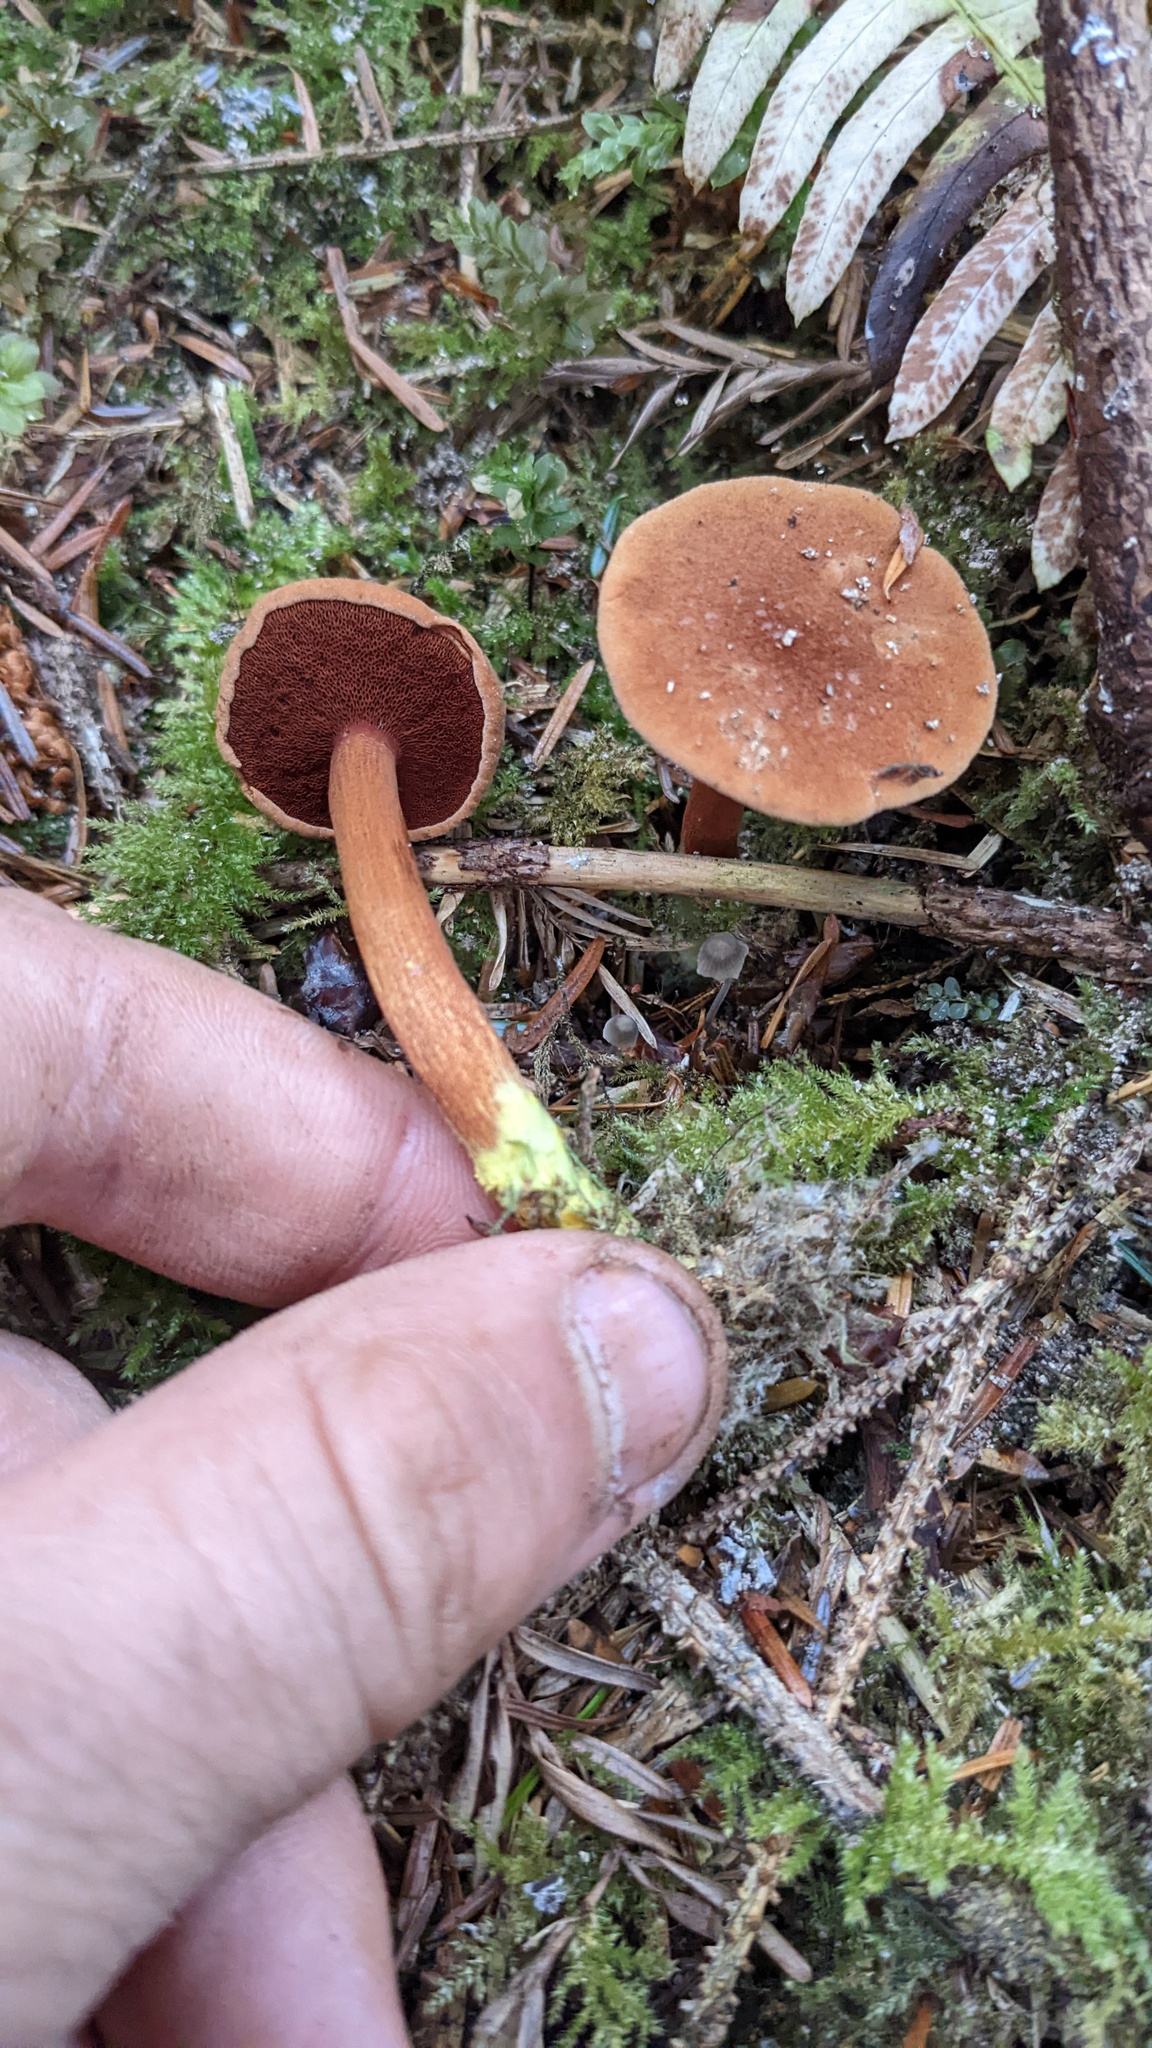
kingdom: Fungi
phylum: Basidiomycota
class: Agaricomycetes
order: Boletales
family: Boletaceae
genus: Chalciporus
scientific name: Chalciporus piperatus
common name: Peppery bolete
